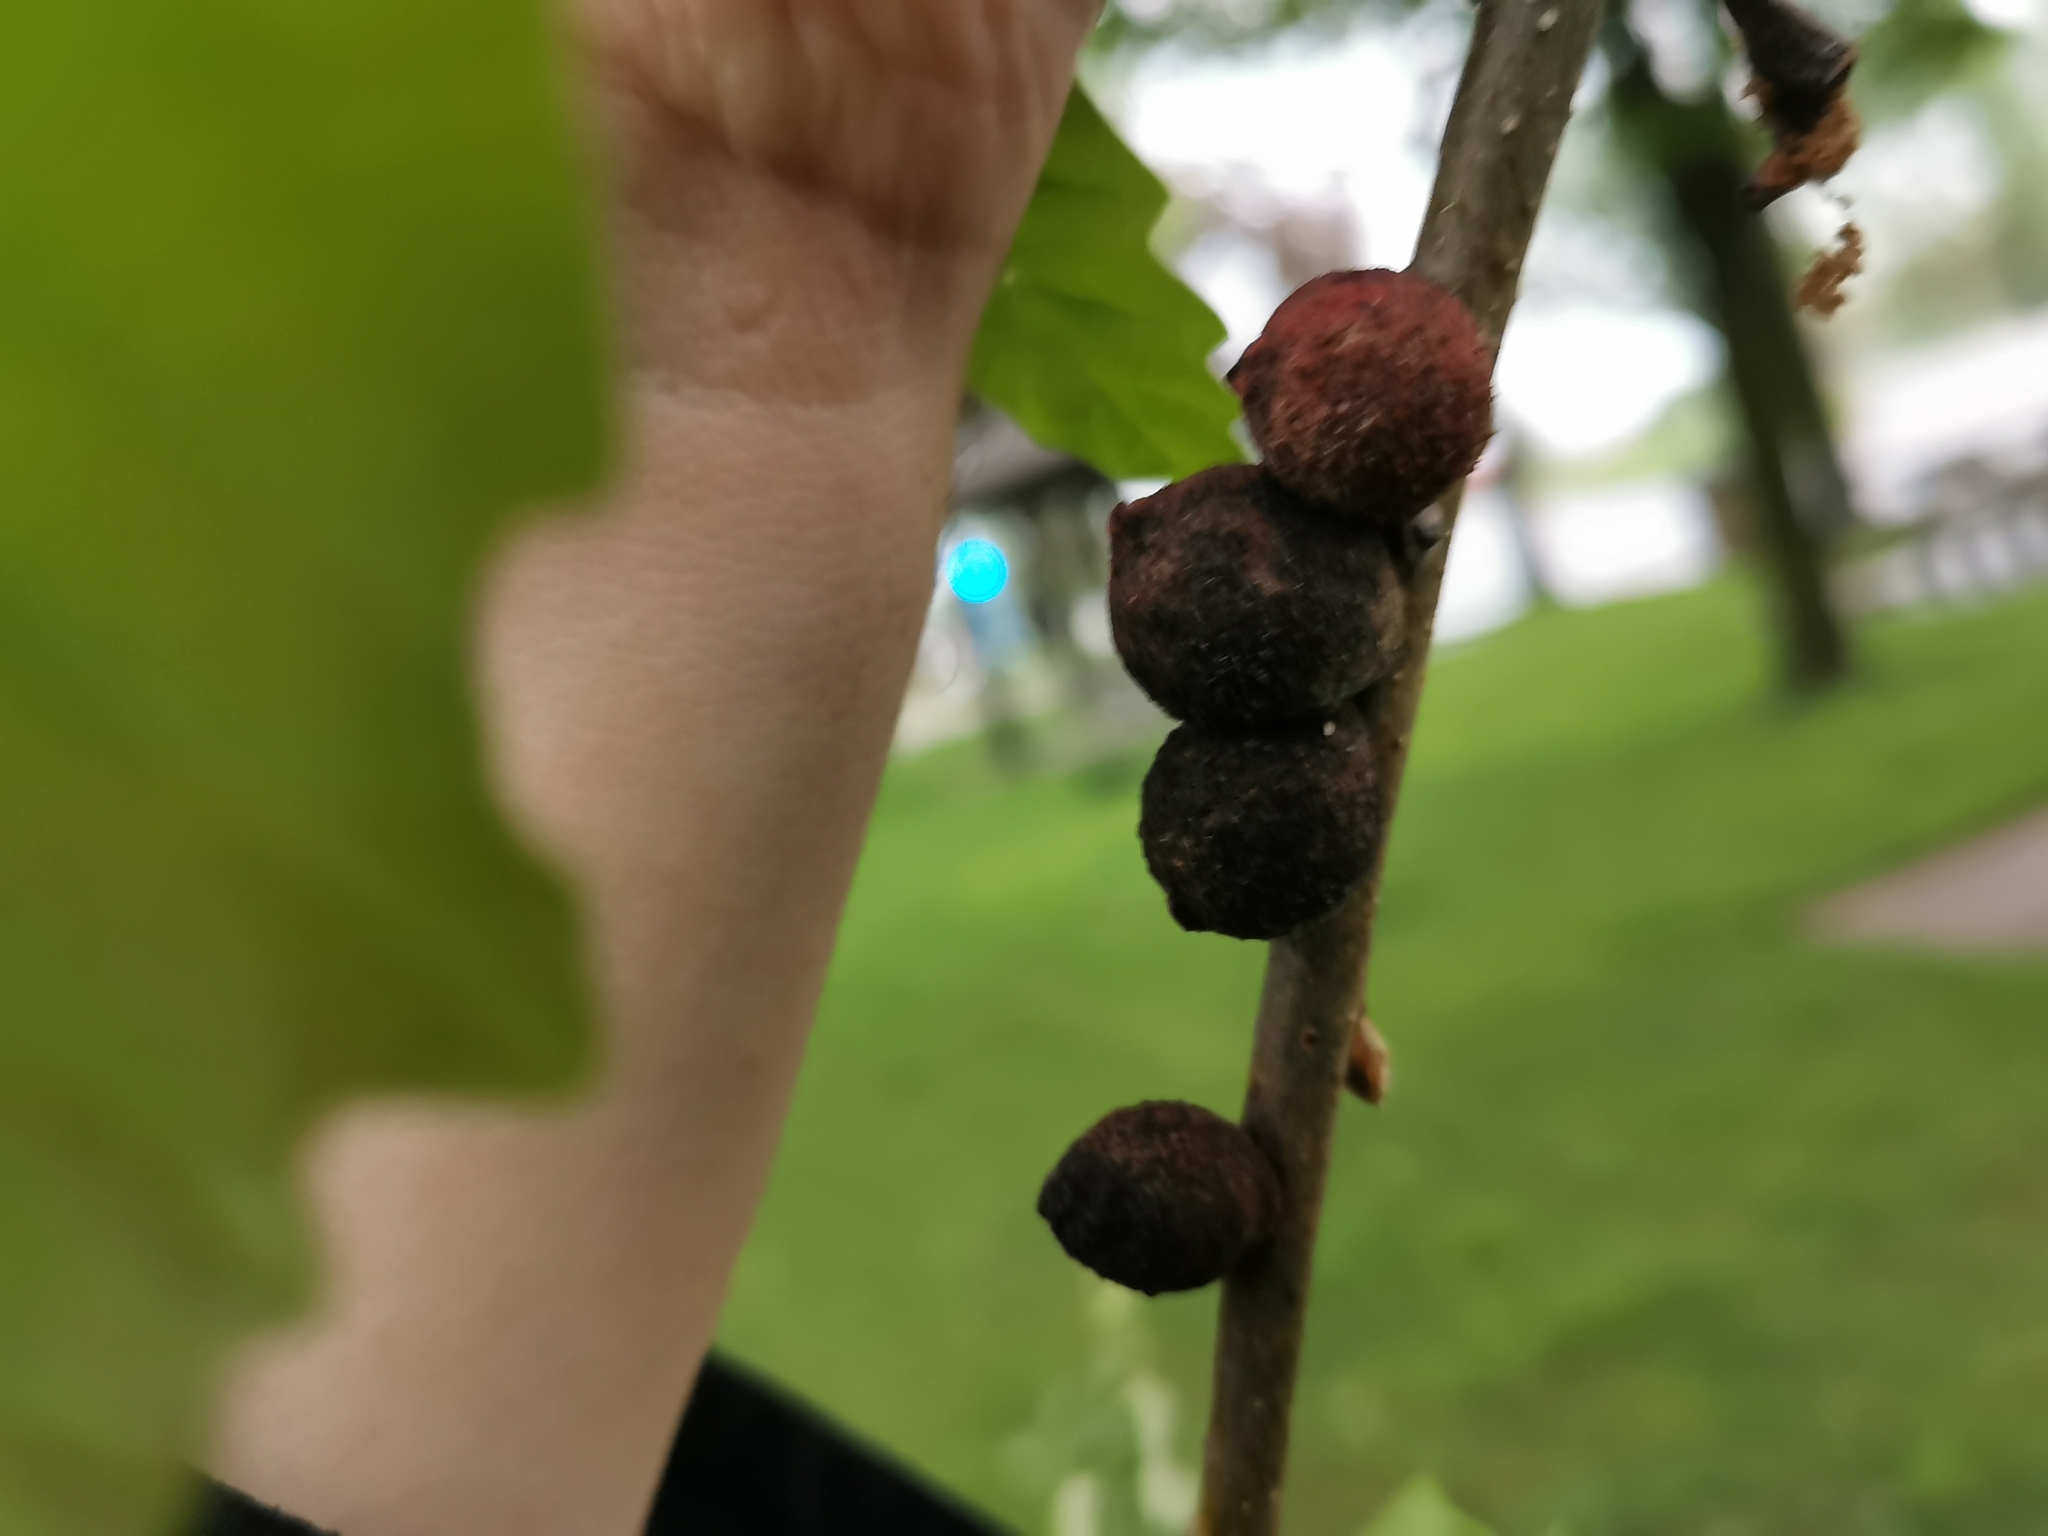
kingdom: Animalia
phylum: Arthropoda
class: Insecta
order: Hymenoptera
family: Cynipidae
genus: Disholcaspis
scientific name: Disholcaspis
